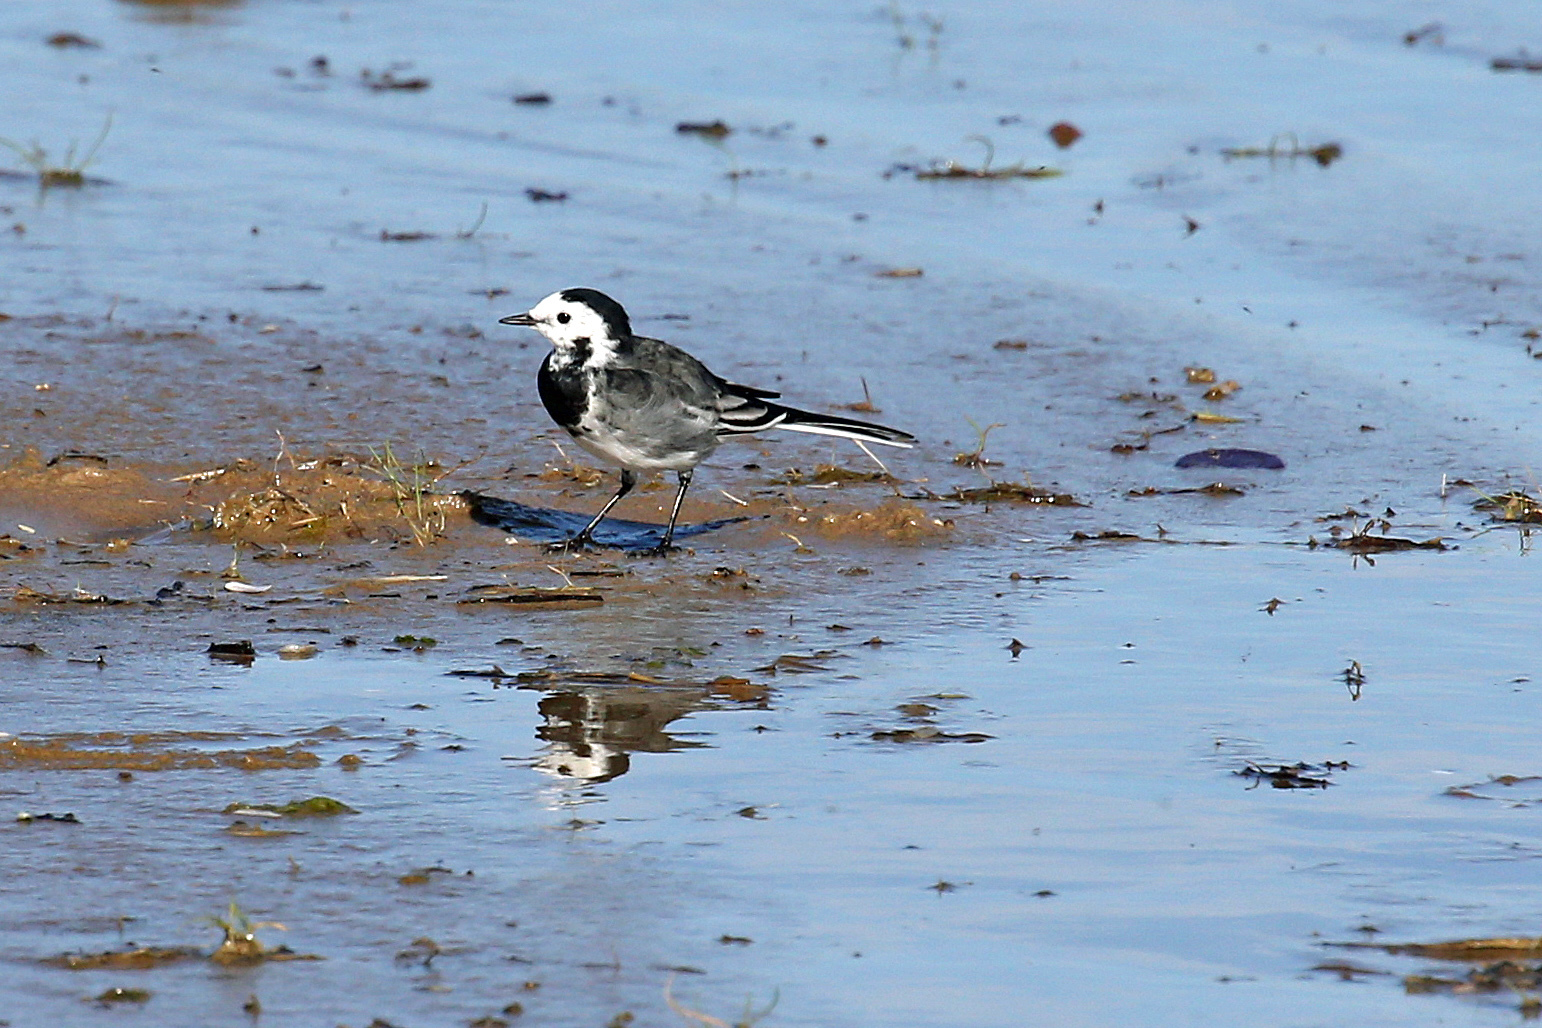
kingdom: Animalia
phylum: Chordata
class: Aves
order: Passeriformes
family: Motacillidae
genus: Motacilla
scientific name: Motacilla alba
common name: White wagtail
